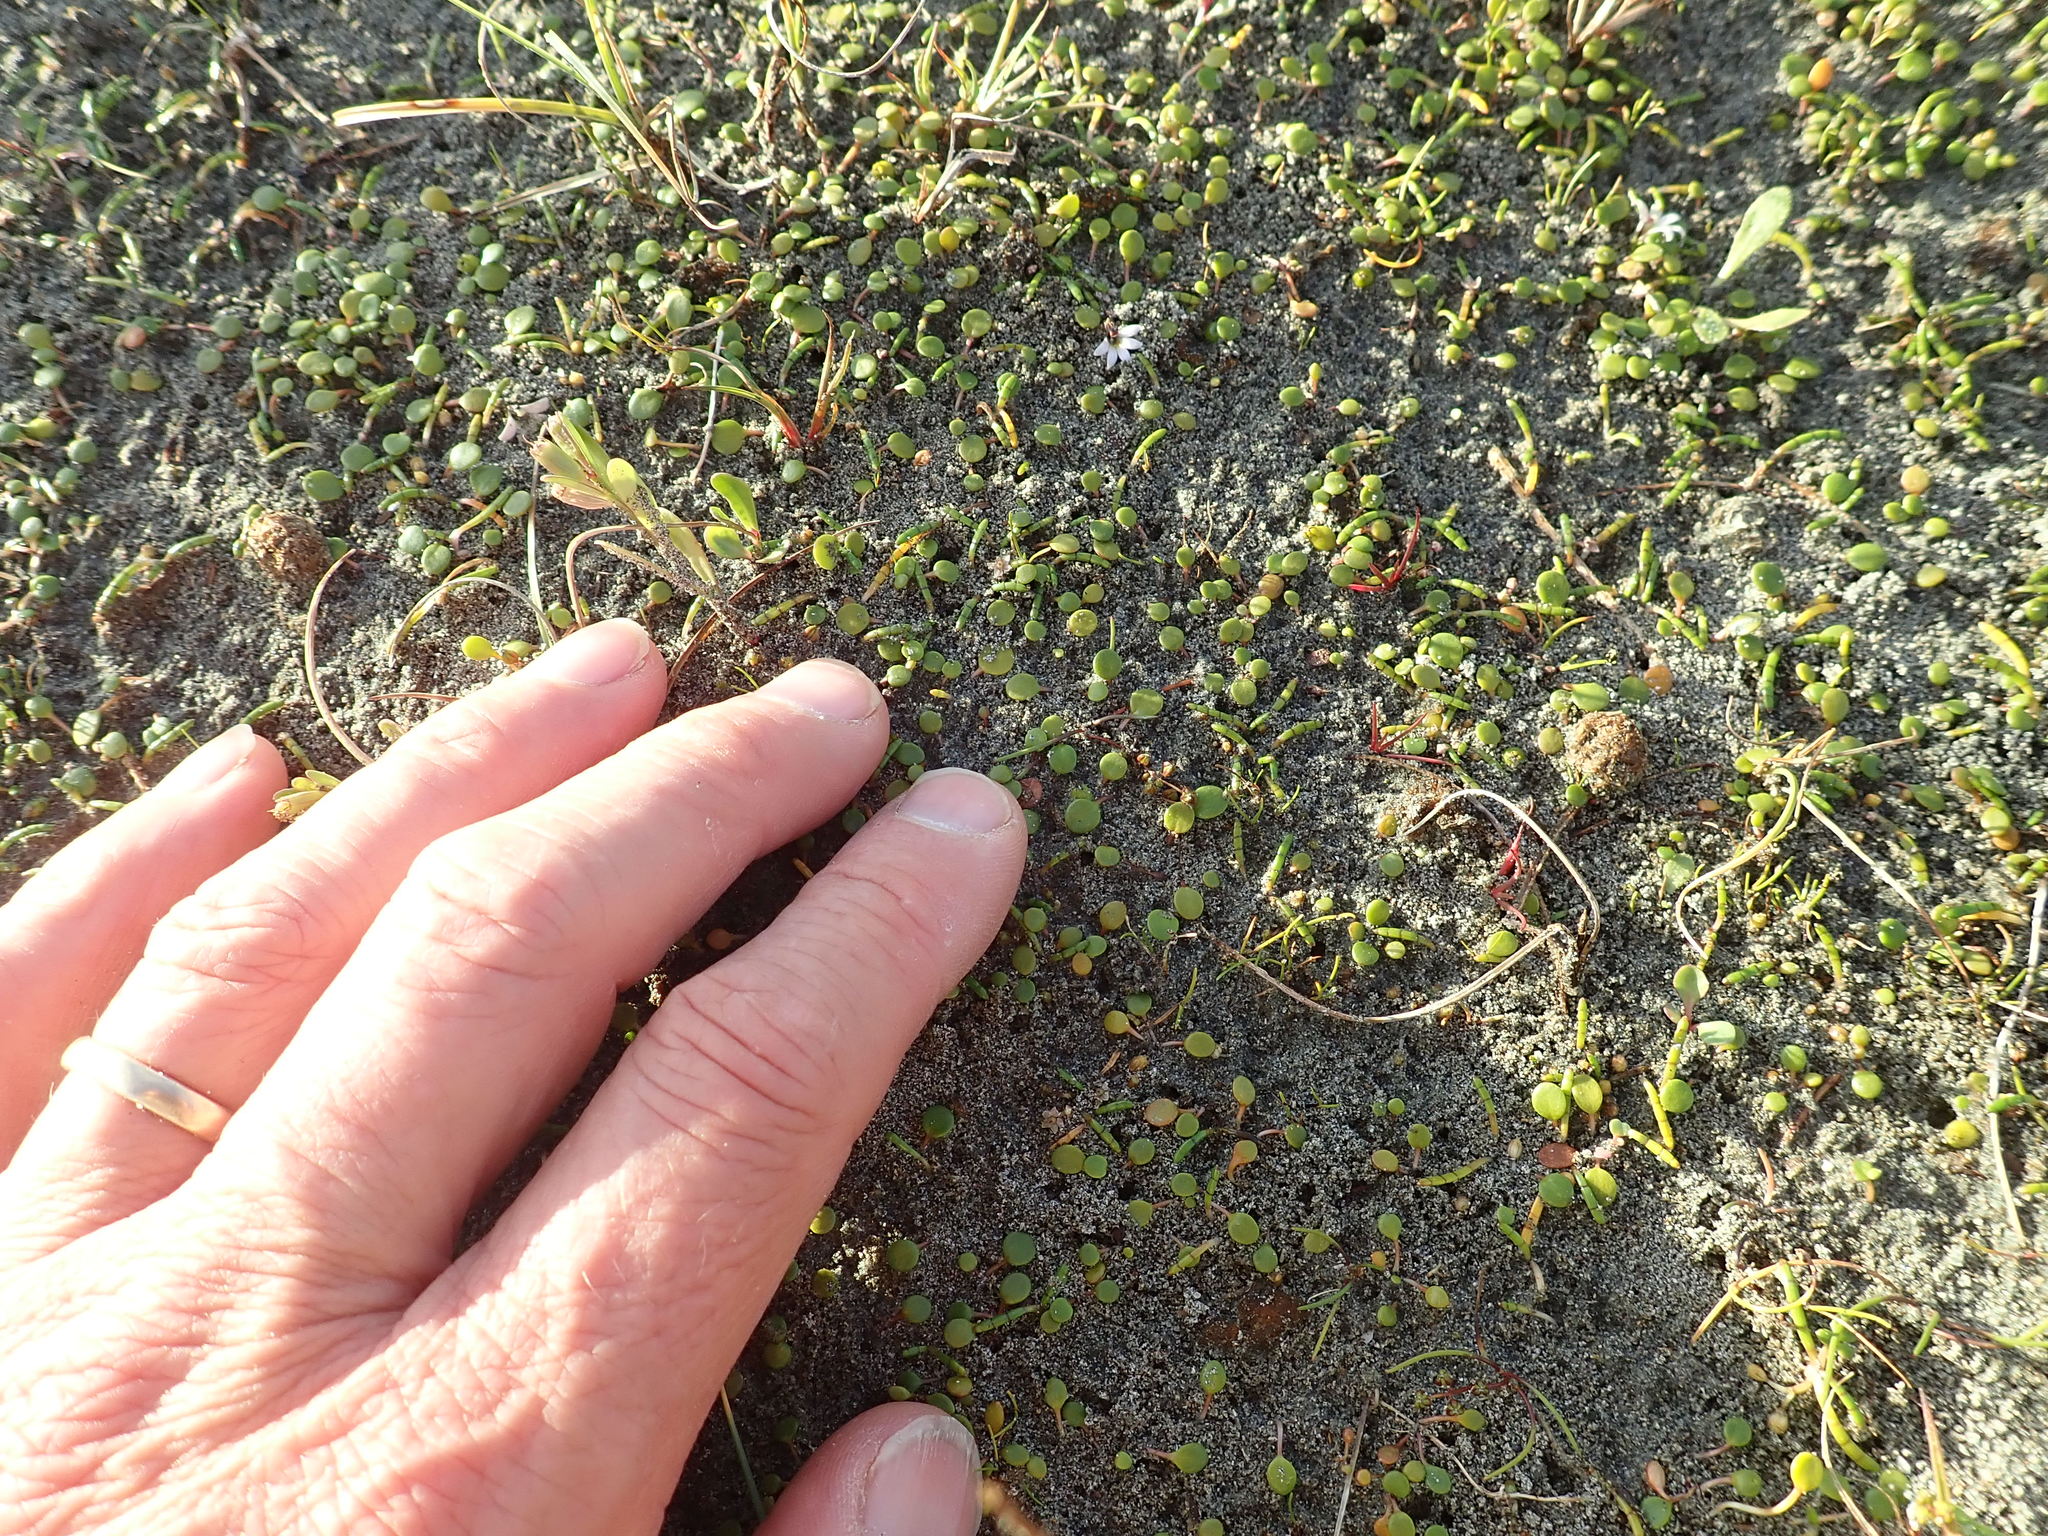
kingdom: Plantae
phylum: Tracheophyta
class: Magnoliopsida
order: Apiales
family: Apiaceae
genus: Lilaeopsis
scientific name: Lilaeopsis novae-zelandiae
